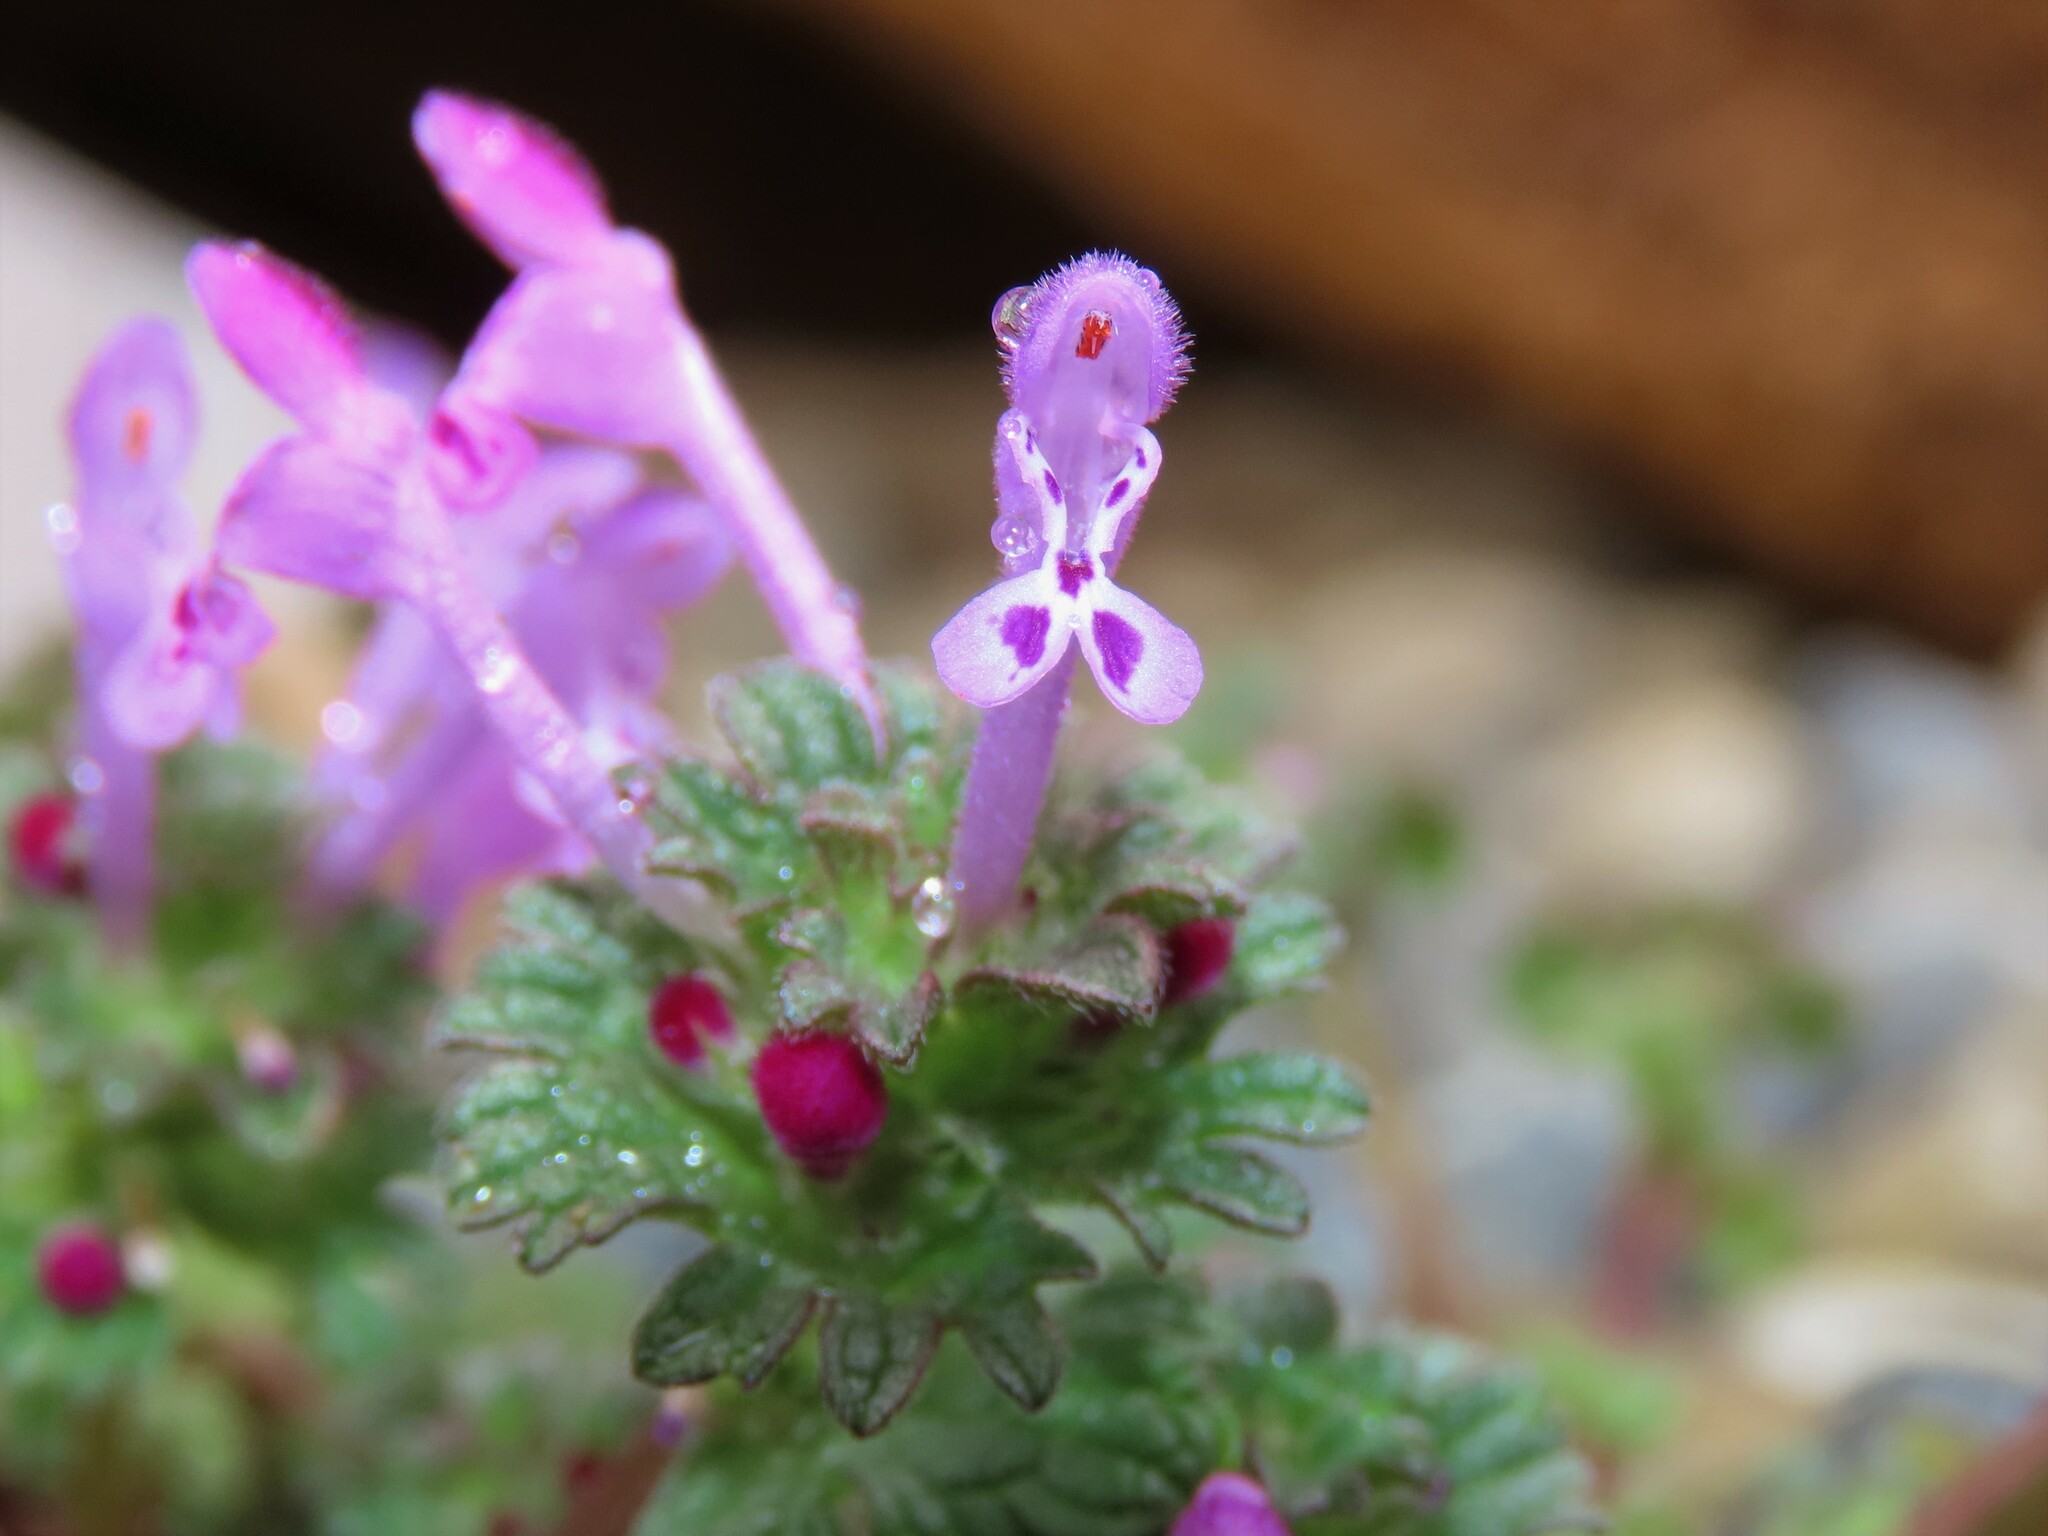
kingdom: Plantae
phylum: Tracheophyta
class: Magnoliopsida
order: Lamiales
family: Lamiaceae
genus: Lamium
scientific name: Lamium amplexicaule
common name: Henbit dead-nettle
